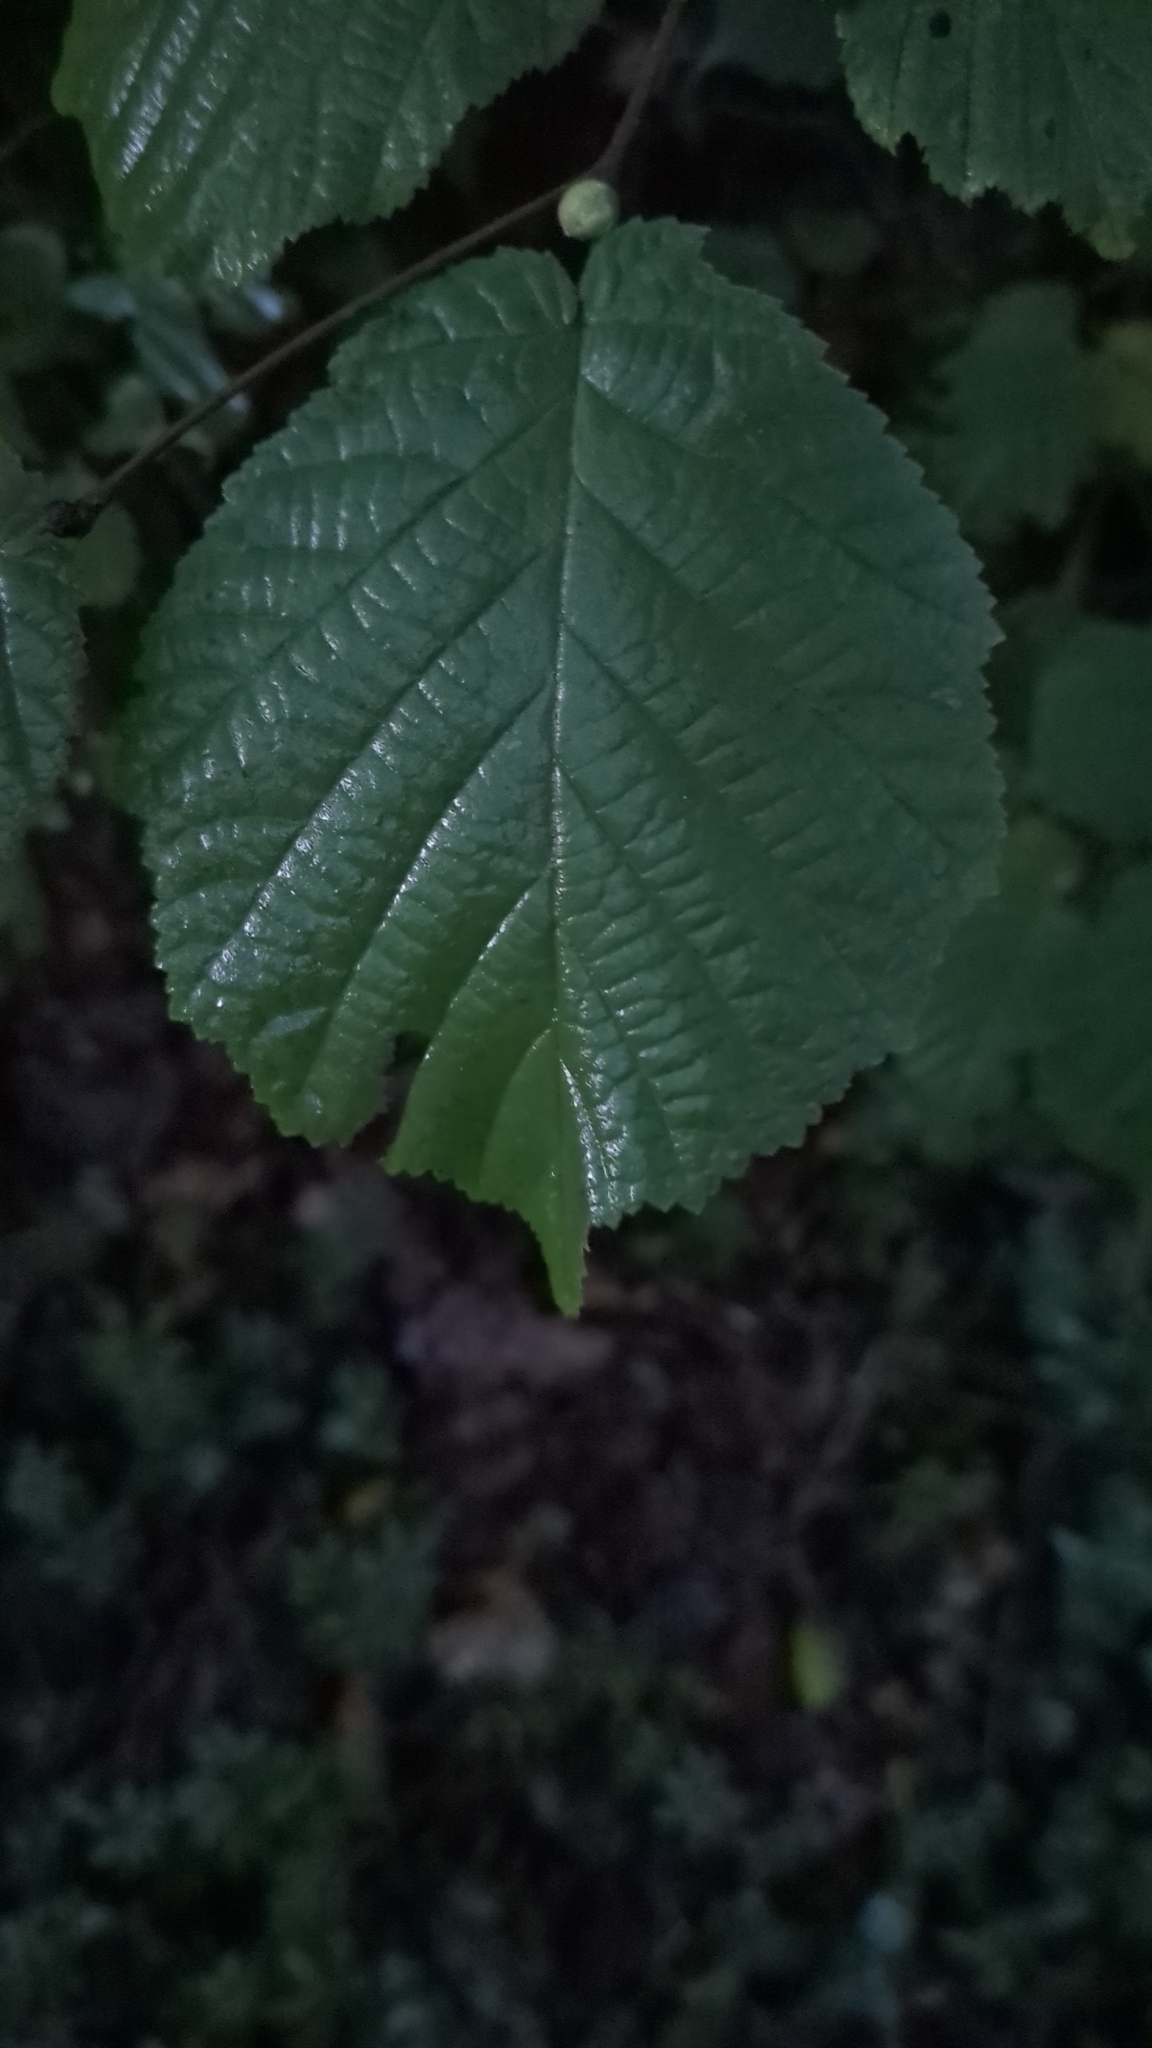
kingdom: Plantae
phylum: Tracheophyta
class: Magnoliopsida
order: Fagales
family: Betulaceae
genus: Corylus
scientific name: Corylus avellana
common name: European hazel
